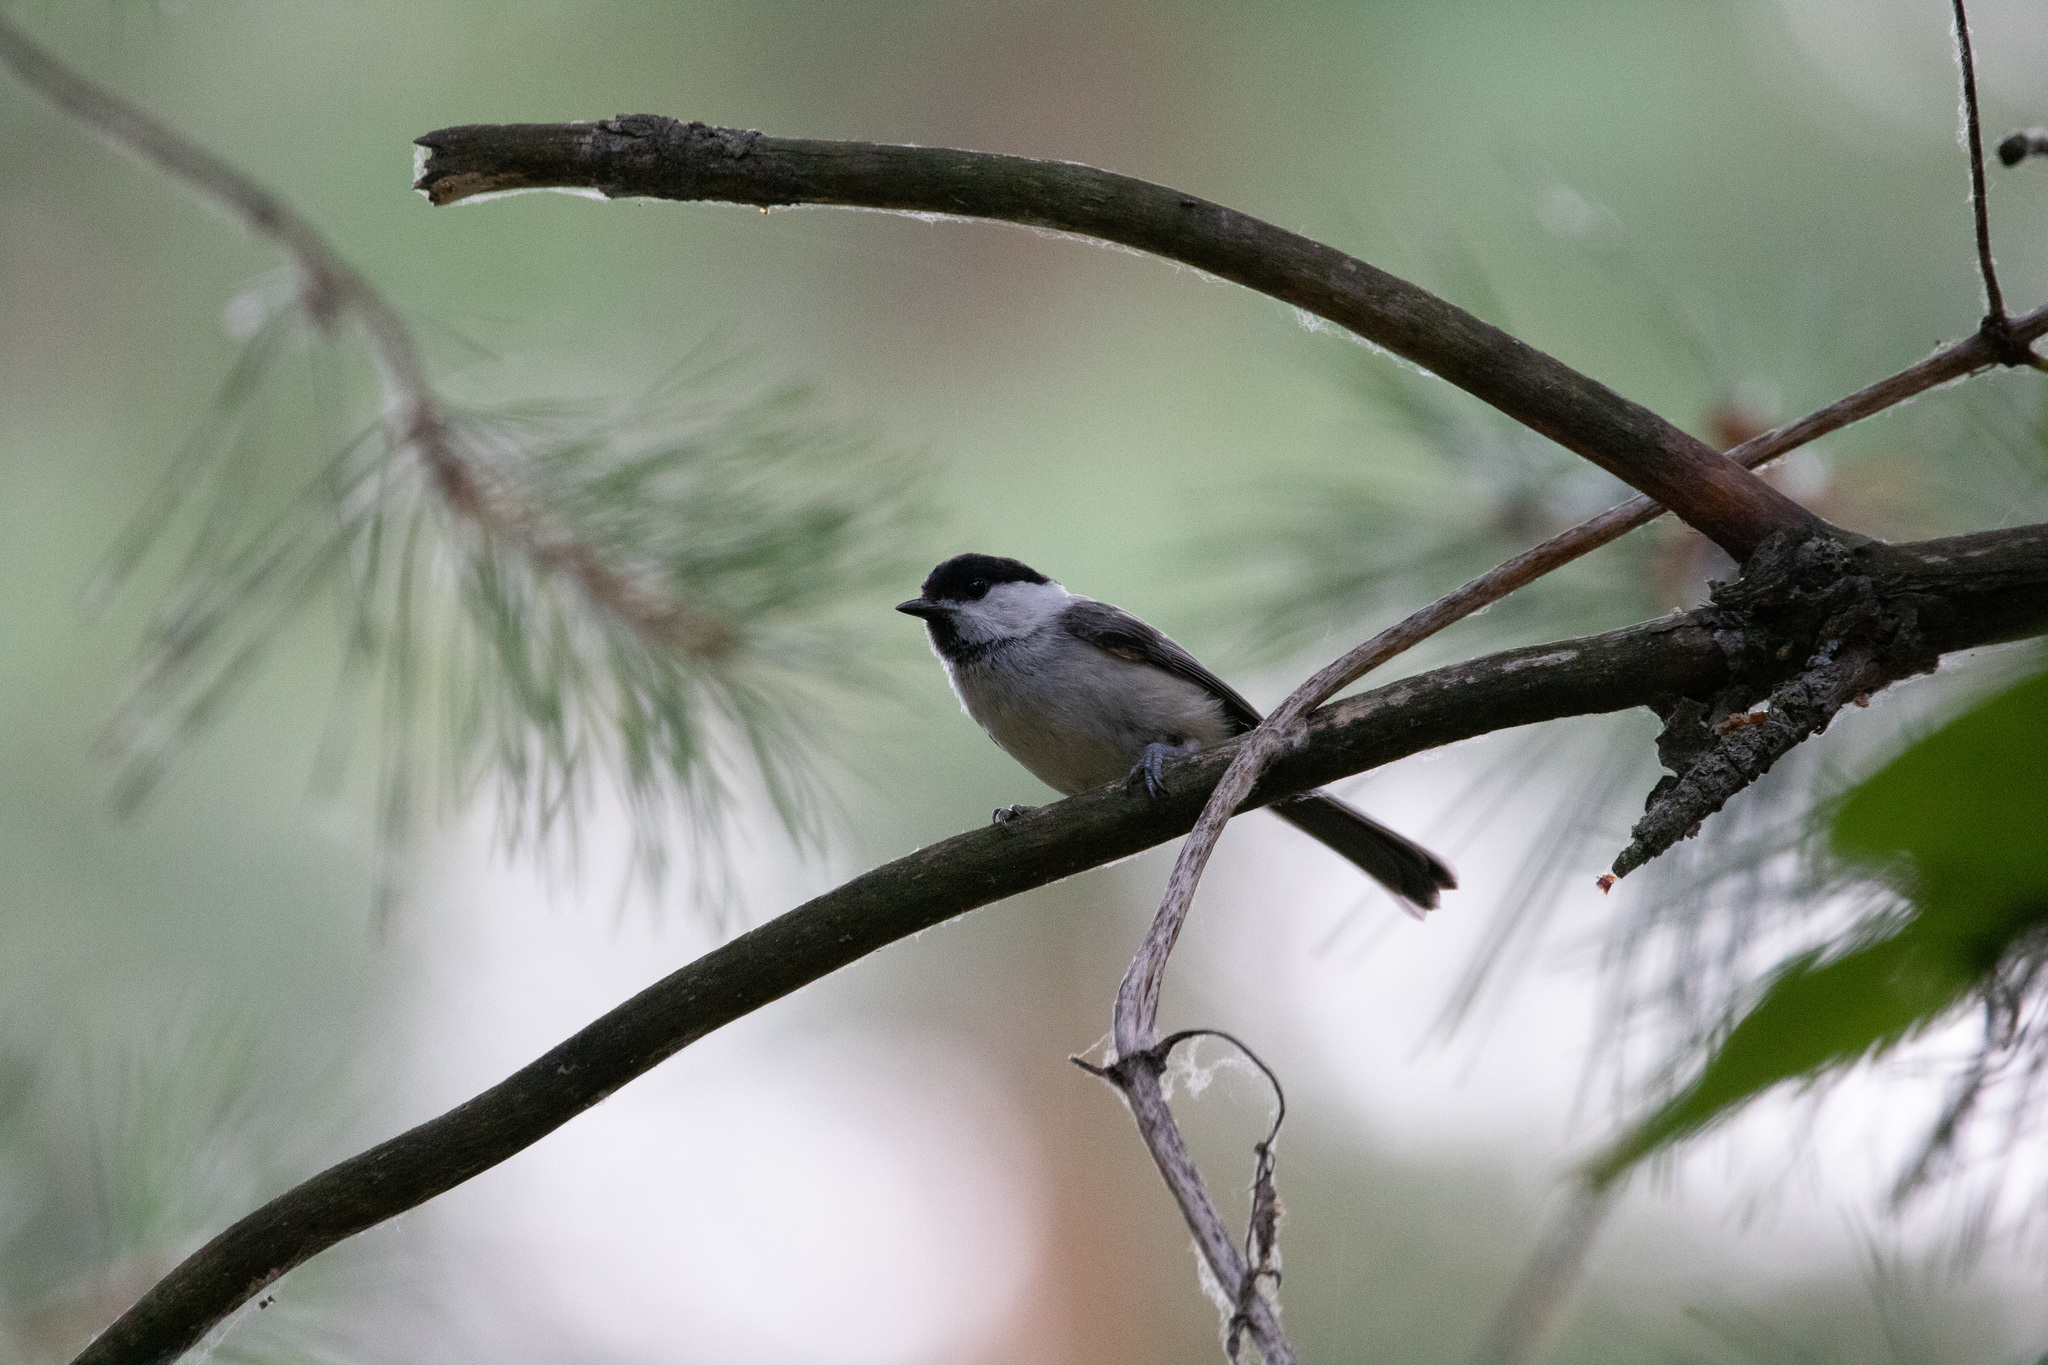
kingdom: Animalia
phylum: Chordata
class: Aves
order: Passeriformes
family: Paridae
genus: Poecile
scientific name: Poecile montanus
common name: Willow tit
